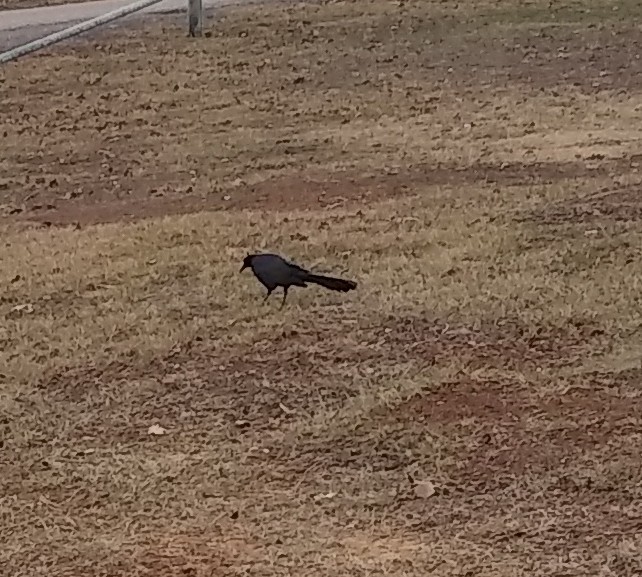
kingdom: Animalia
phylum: Chordata
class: Aves
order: Passeriformes
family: Icteridae
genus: Quiscalus
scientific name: Quiscalus mexicanus
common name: Great-tailed grackle
